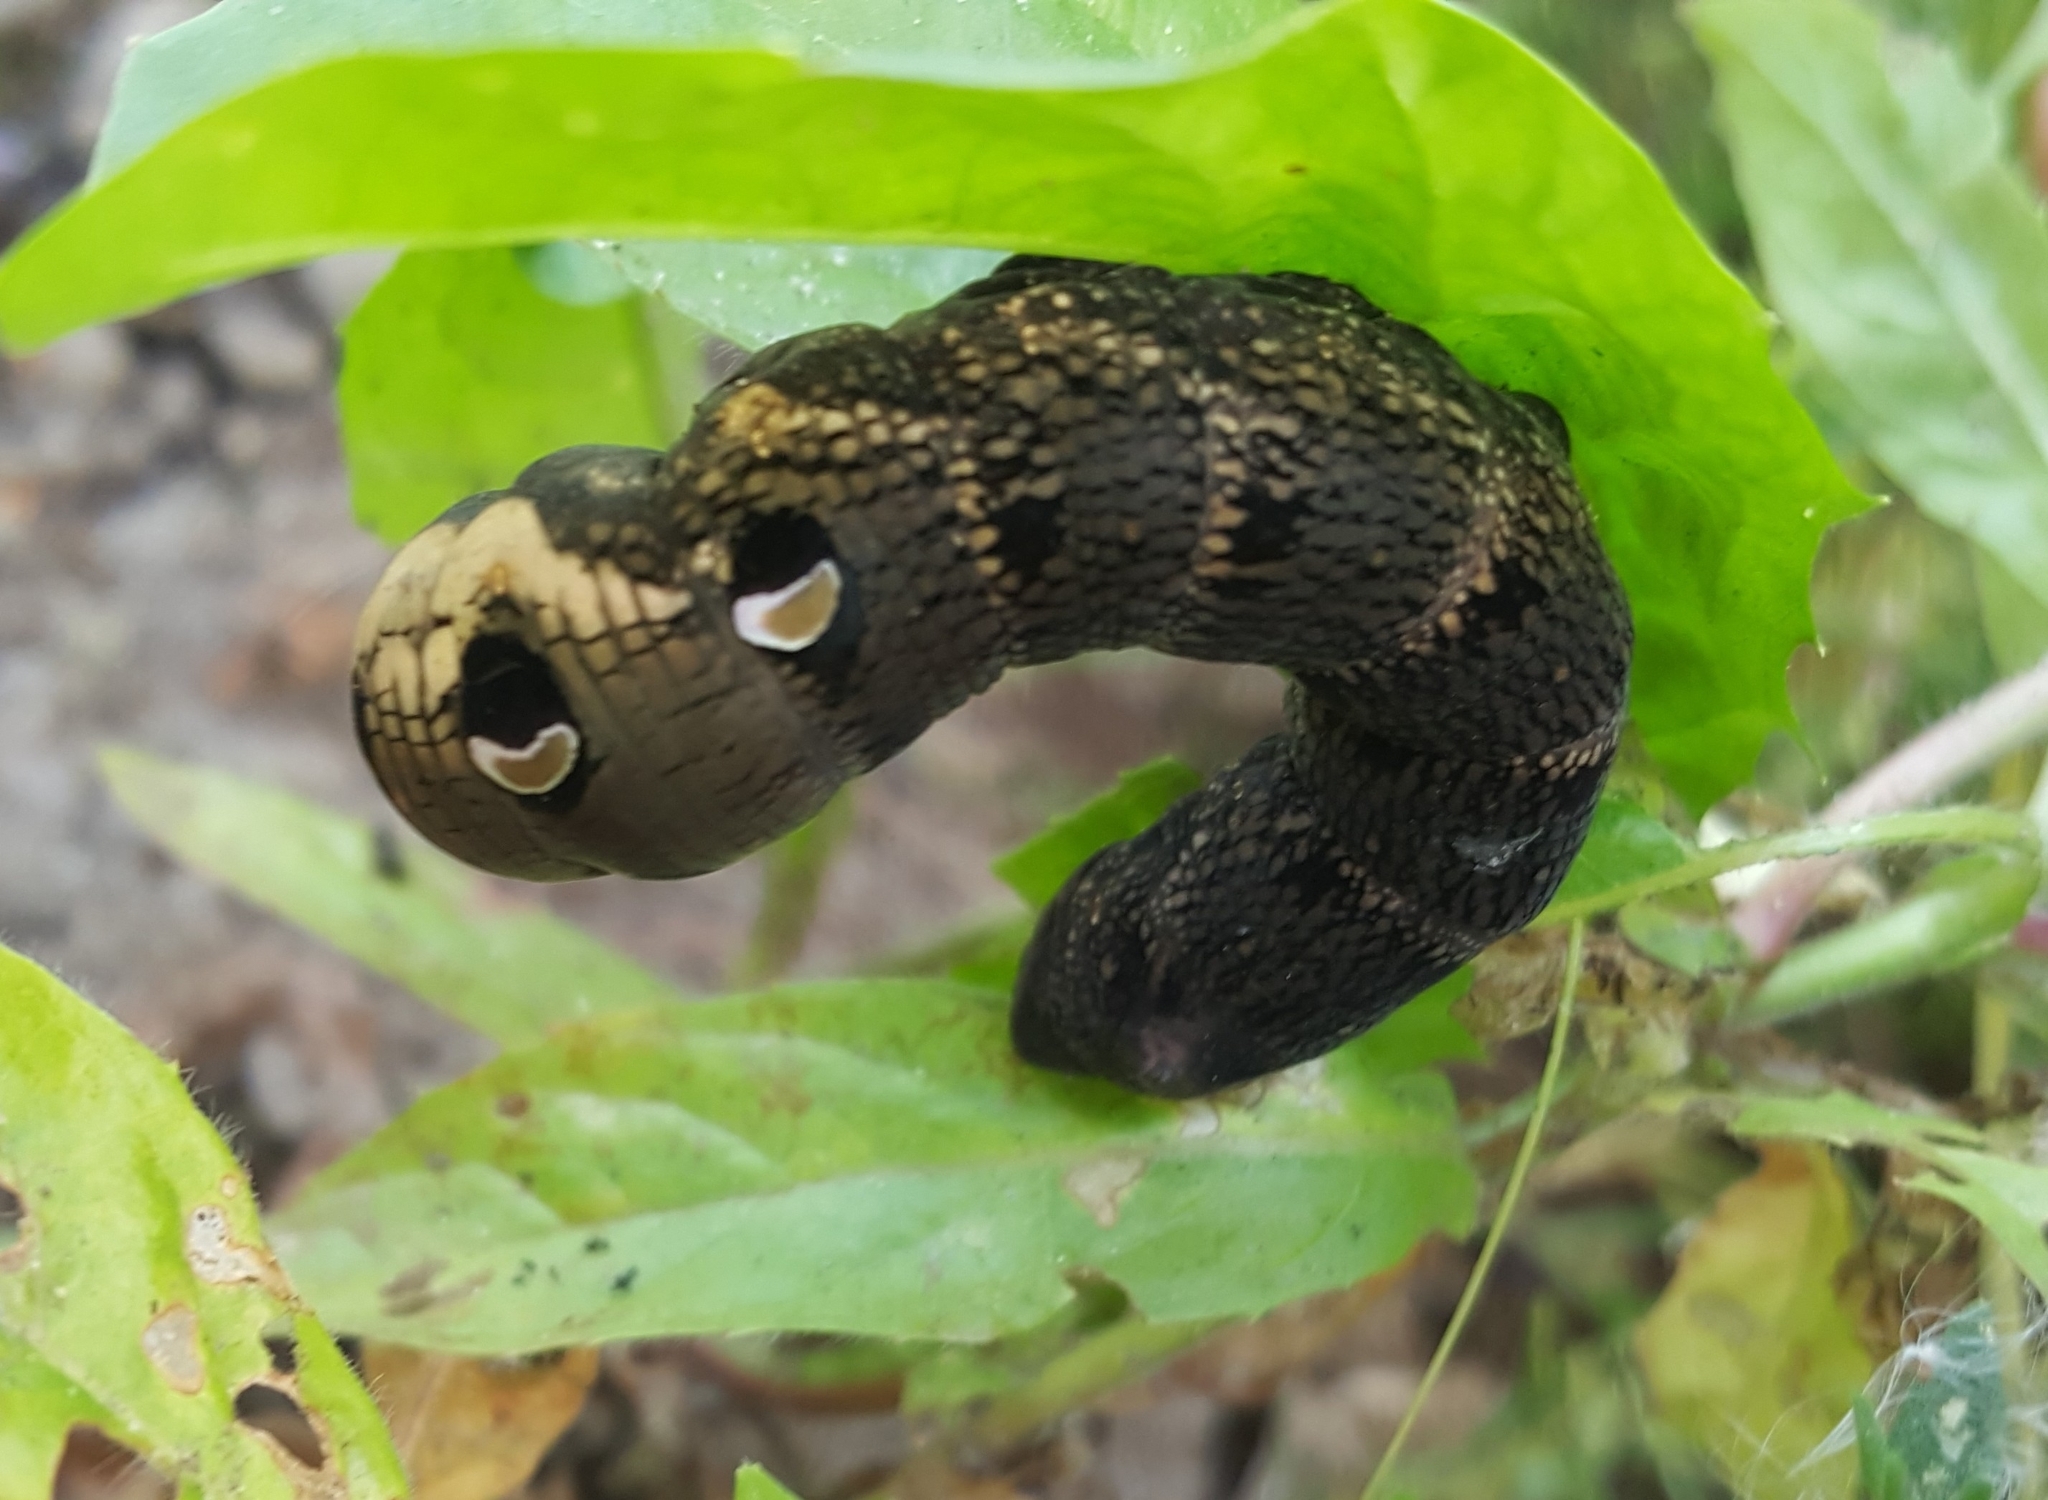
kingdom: Animalia
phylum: Arthropoda
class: Insecta
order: Lepidoptera
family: Sphingidae
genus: Deilephila
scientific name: Deilephila elpenor
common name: Elephant hawk-moth
